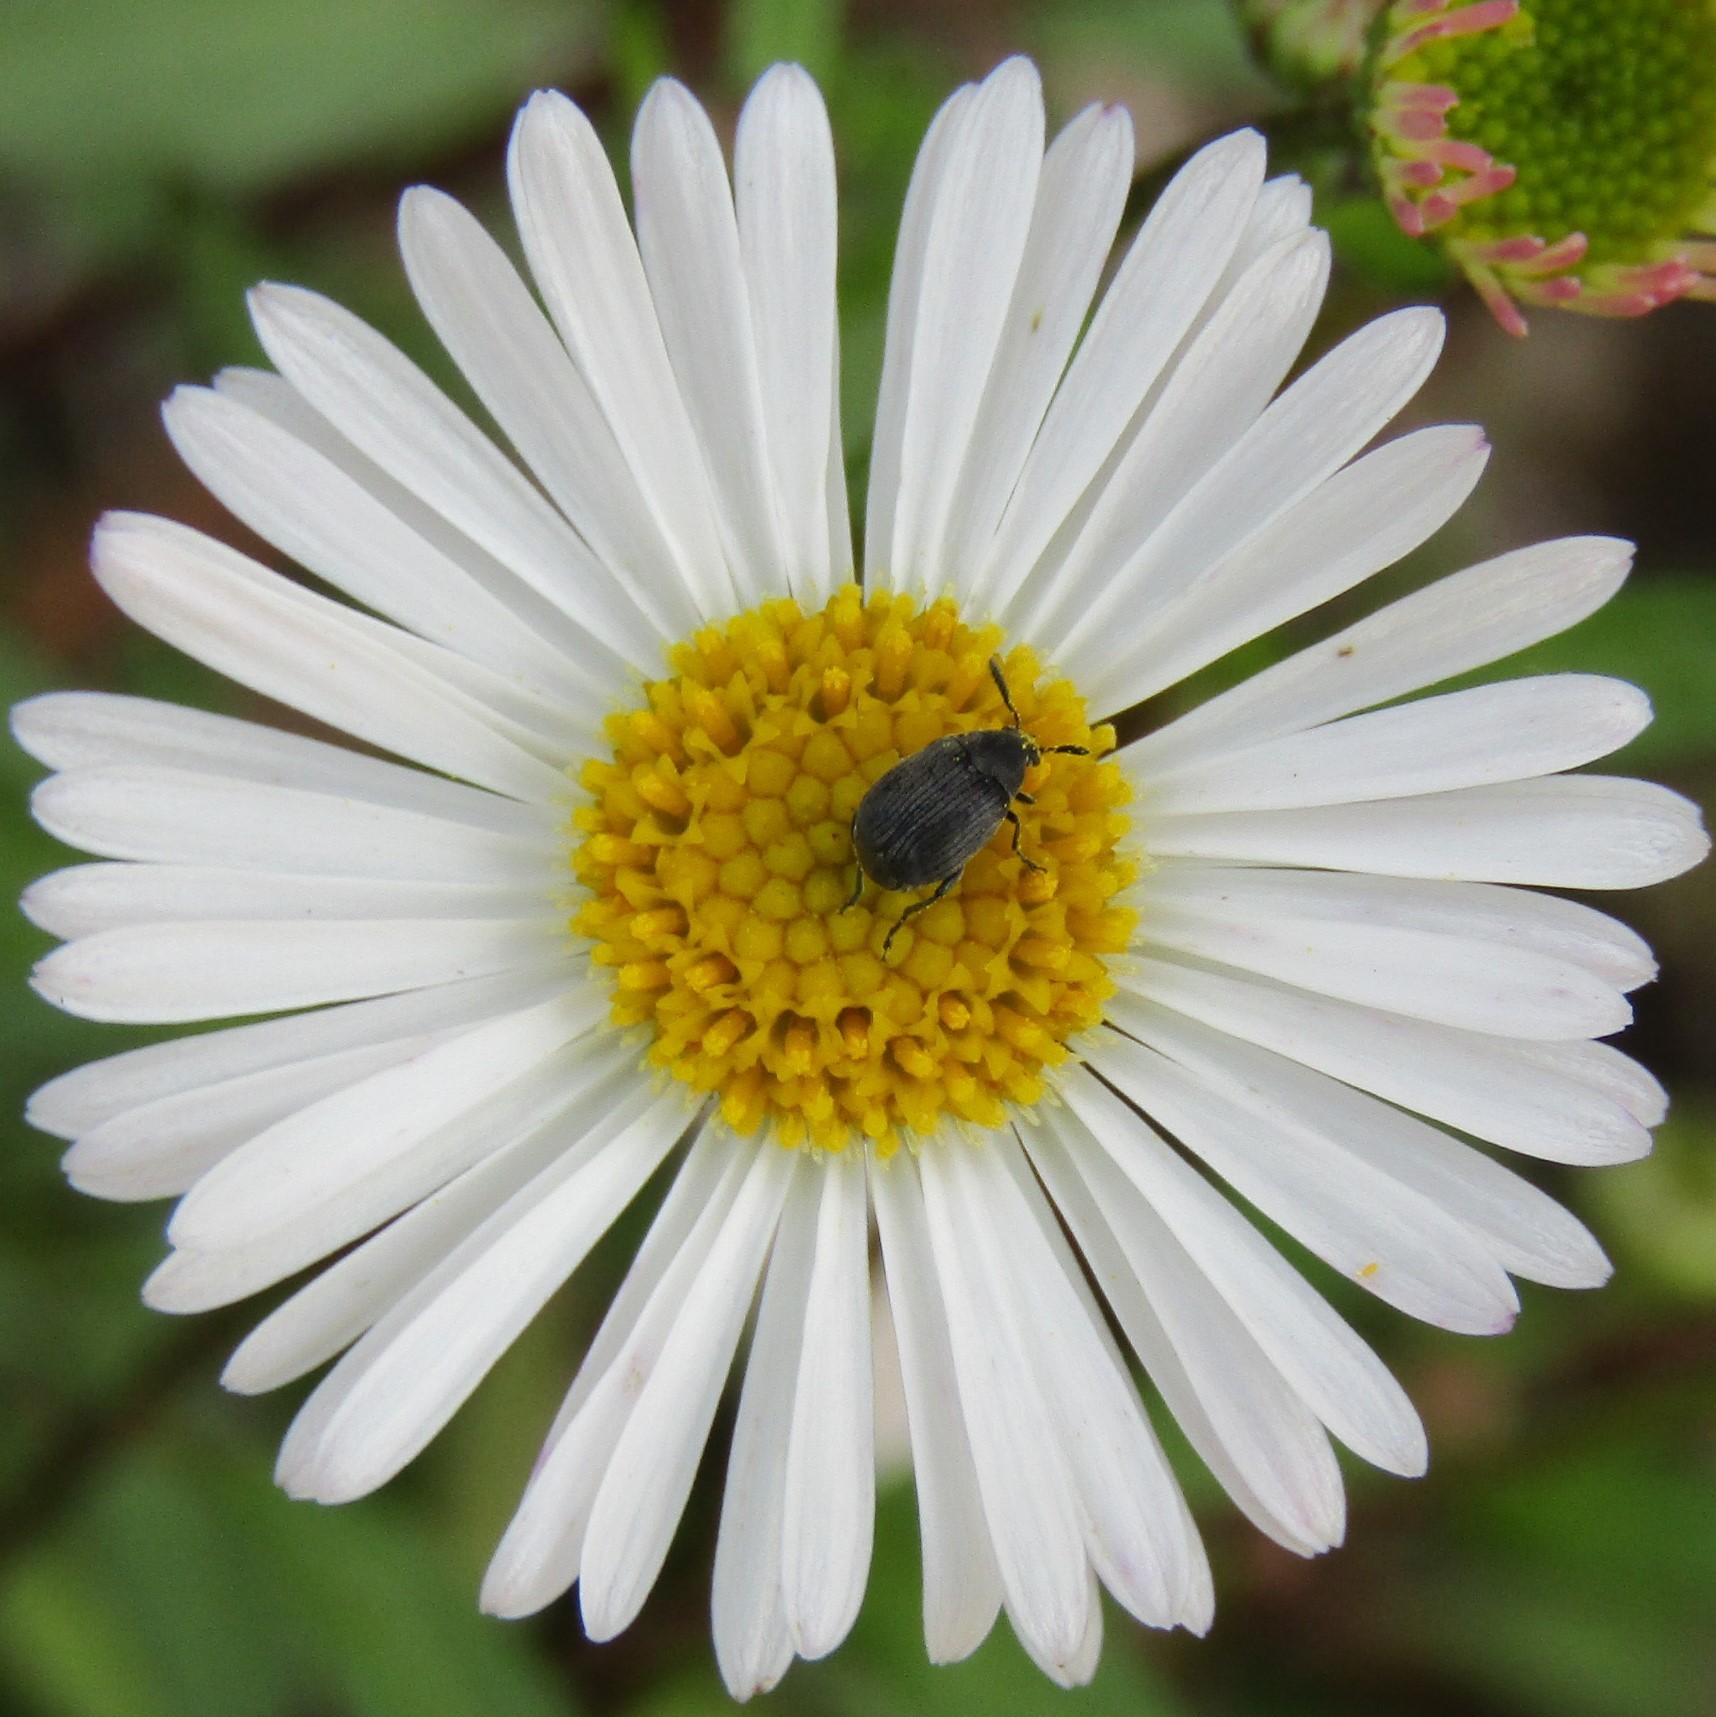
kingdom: Animalia
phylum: Arthropoda
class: Insecta
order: Coleoptera
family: Chrysomelidae
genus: Bruchidius
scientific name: Bruchidius villosus
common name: Scotch broom bruchid
